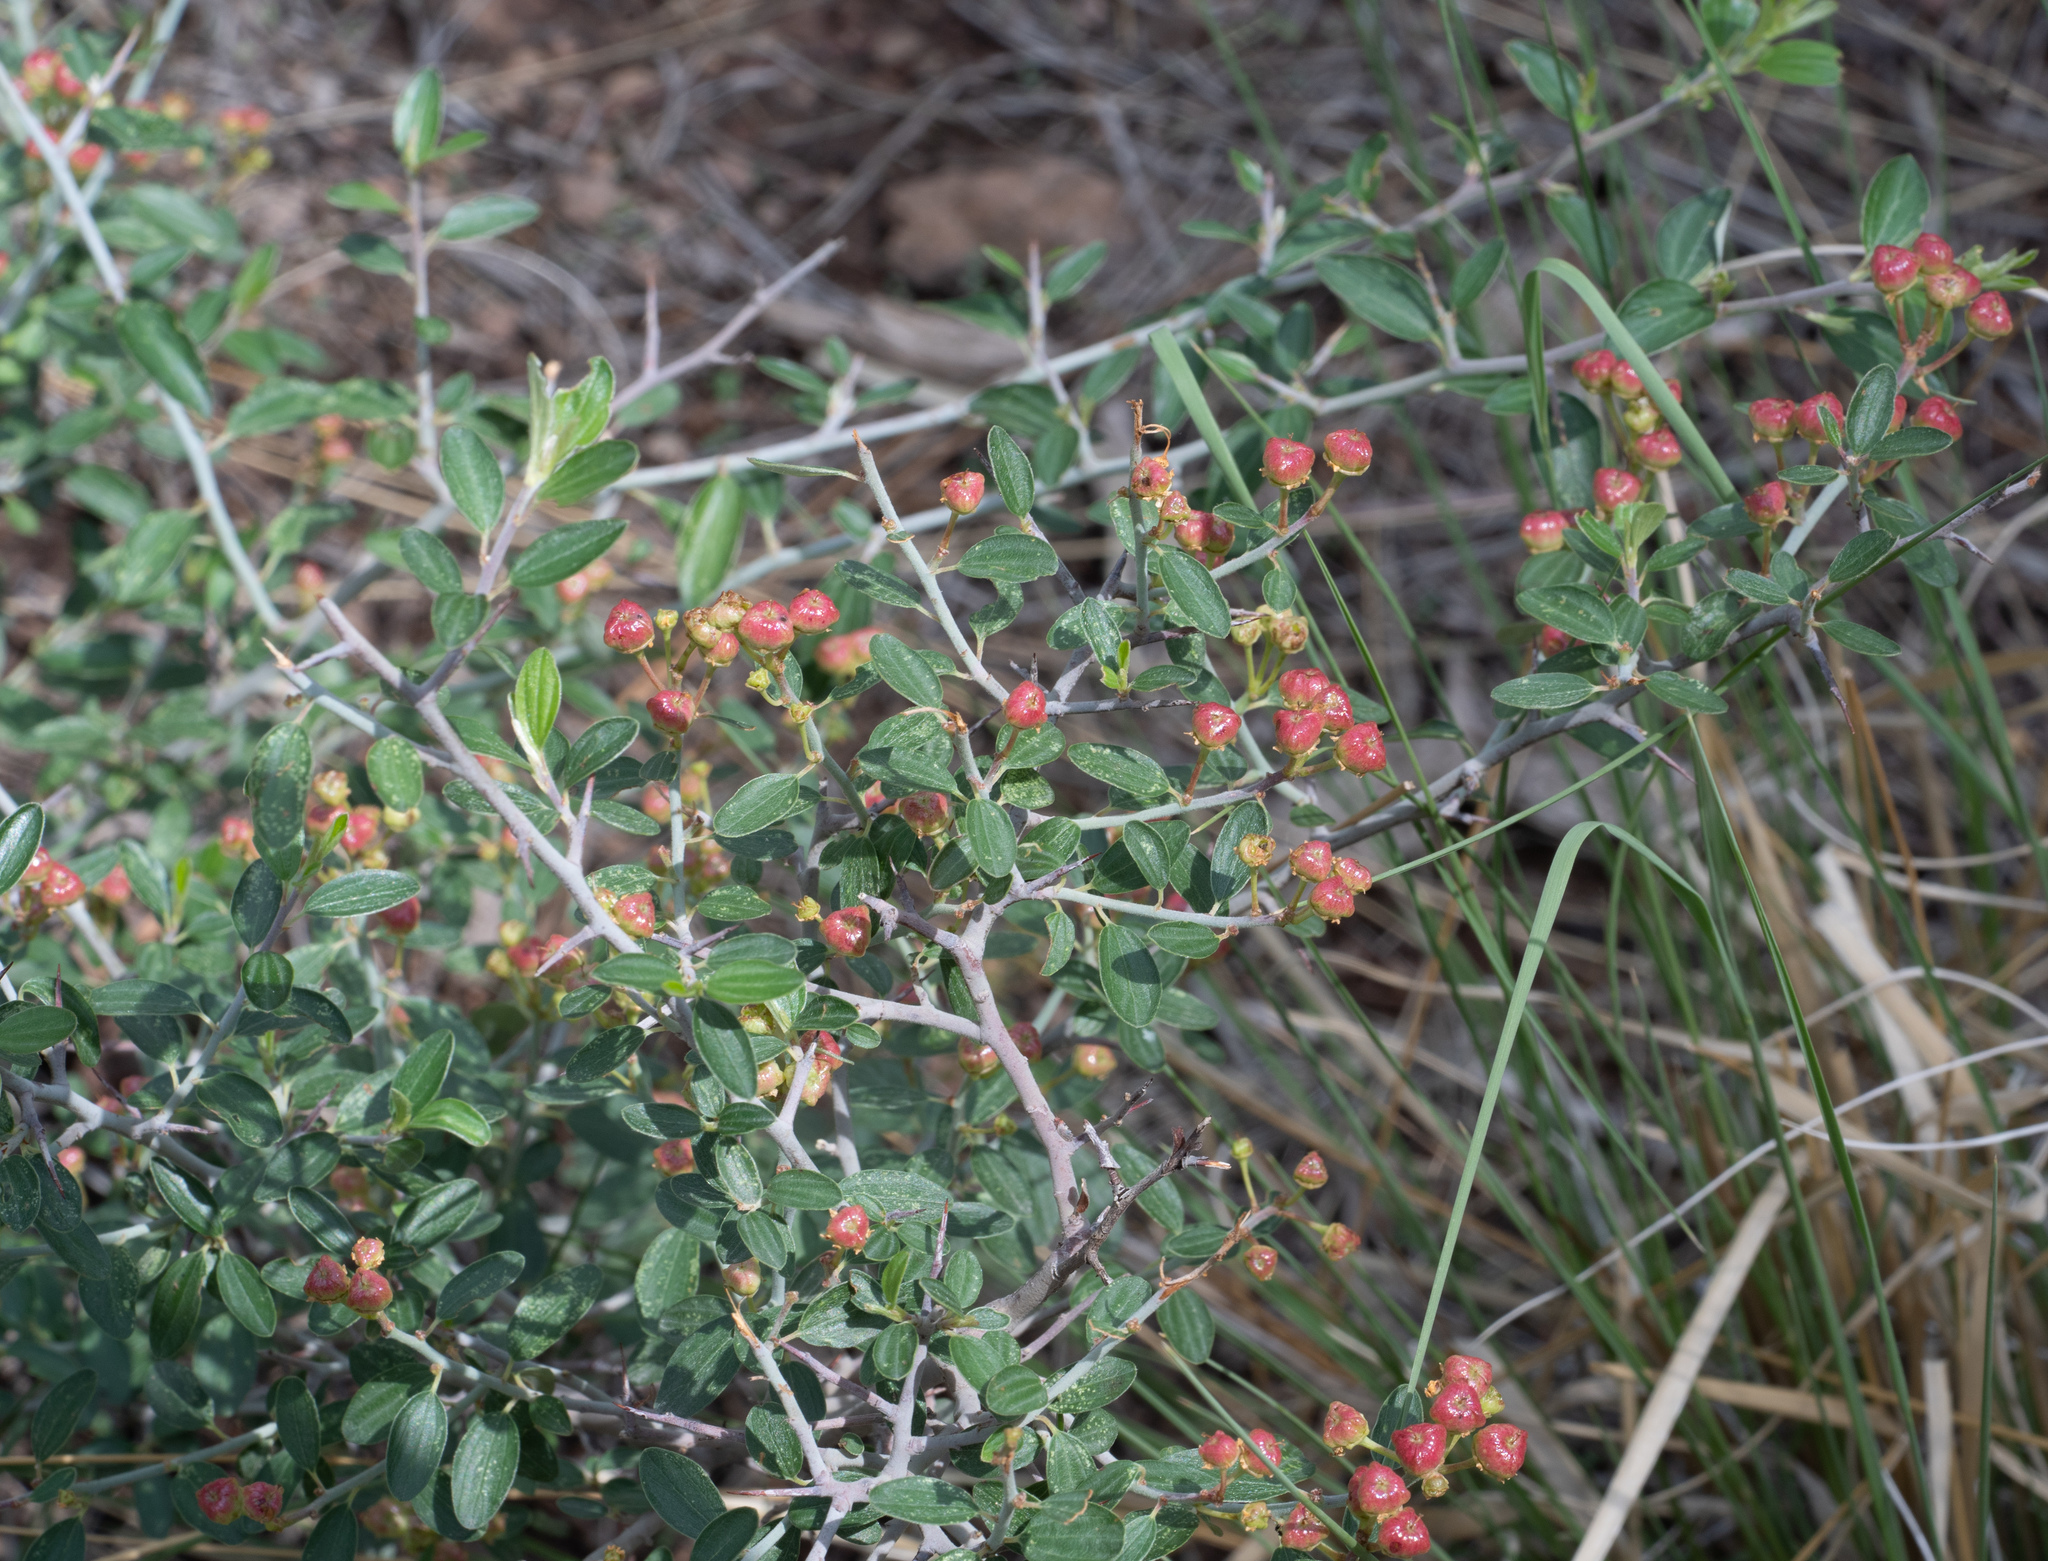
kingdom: Plantae
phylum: Tracheophyta
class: Magnoliopsida
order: Rosales
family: Rhamnaceae
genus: Ceanothus
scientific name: Ceanothus fendleri
